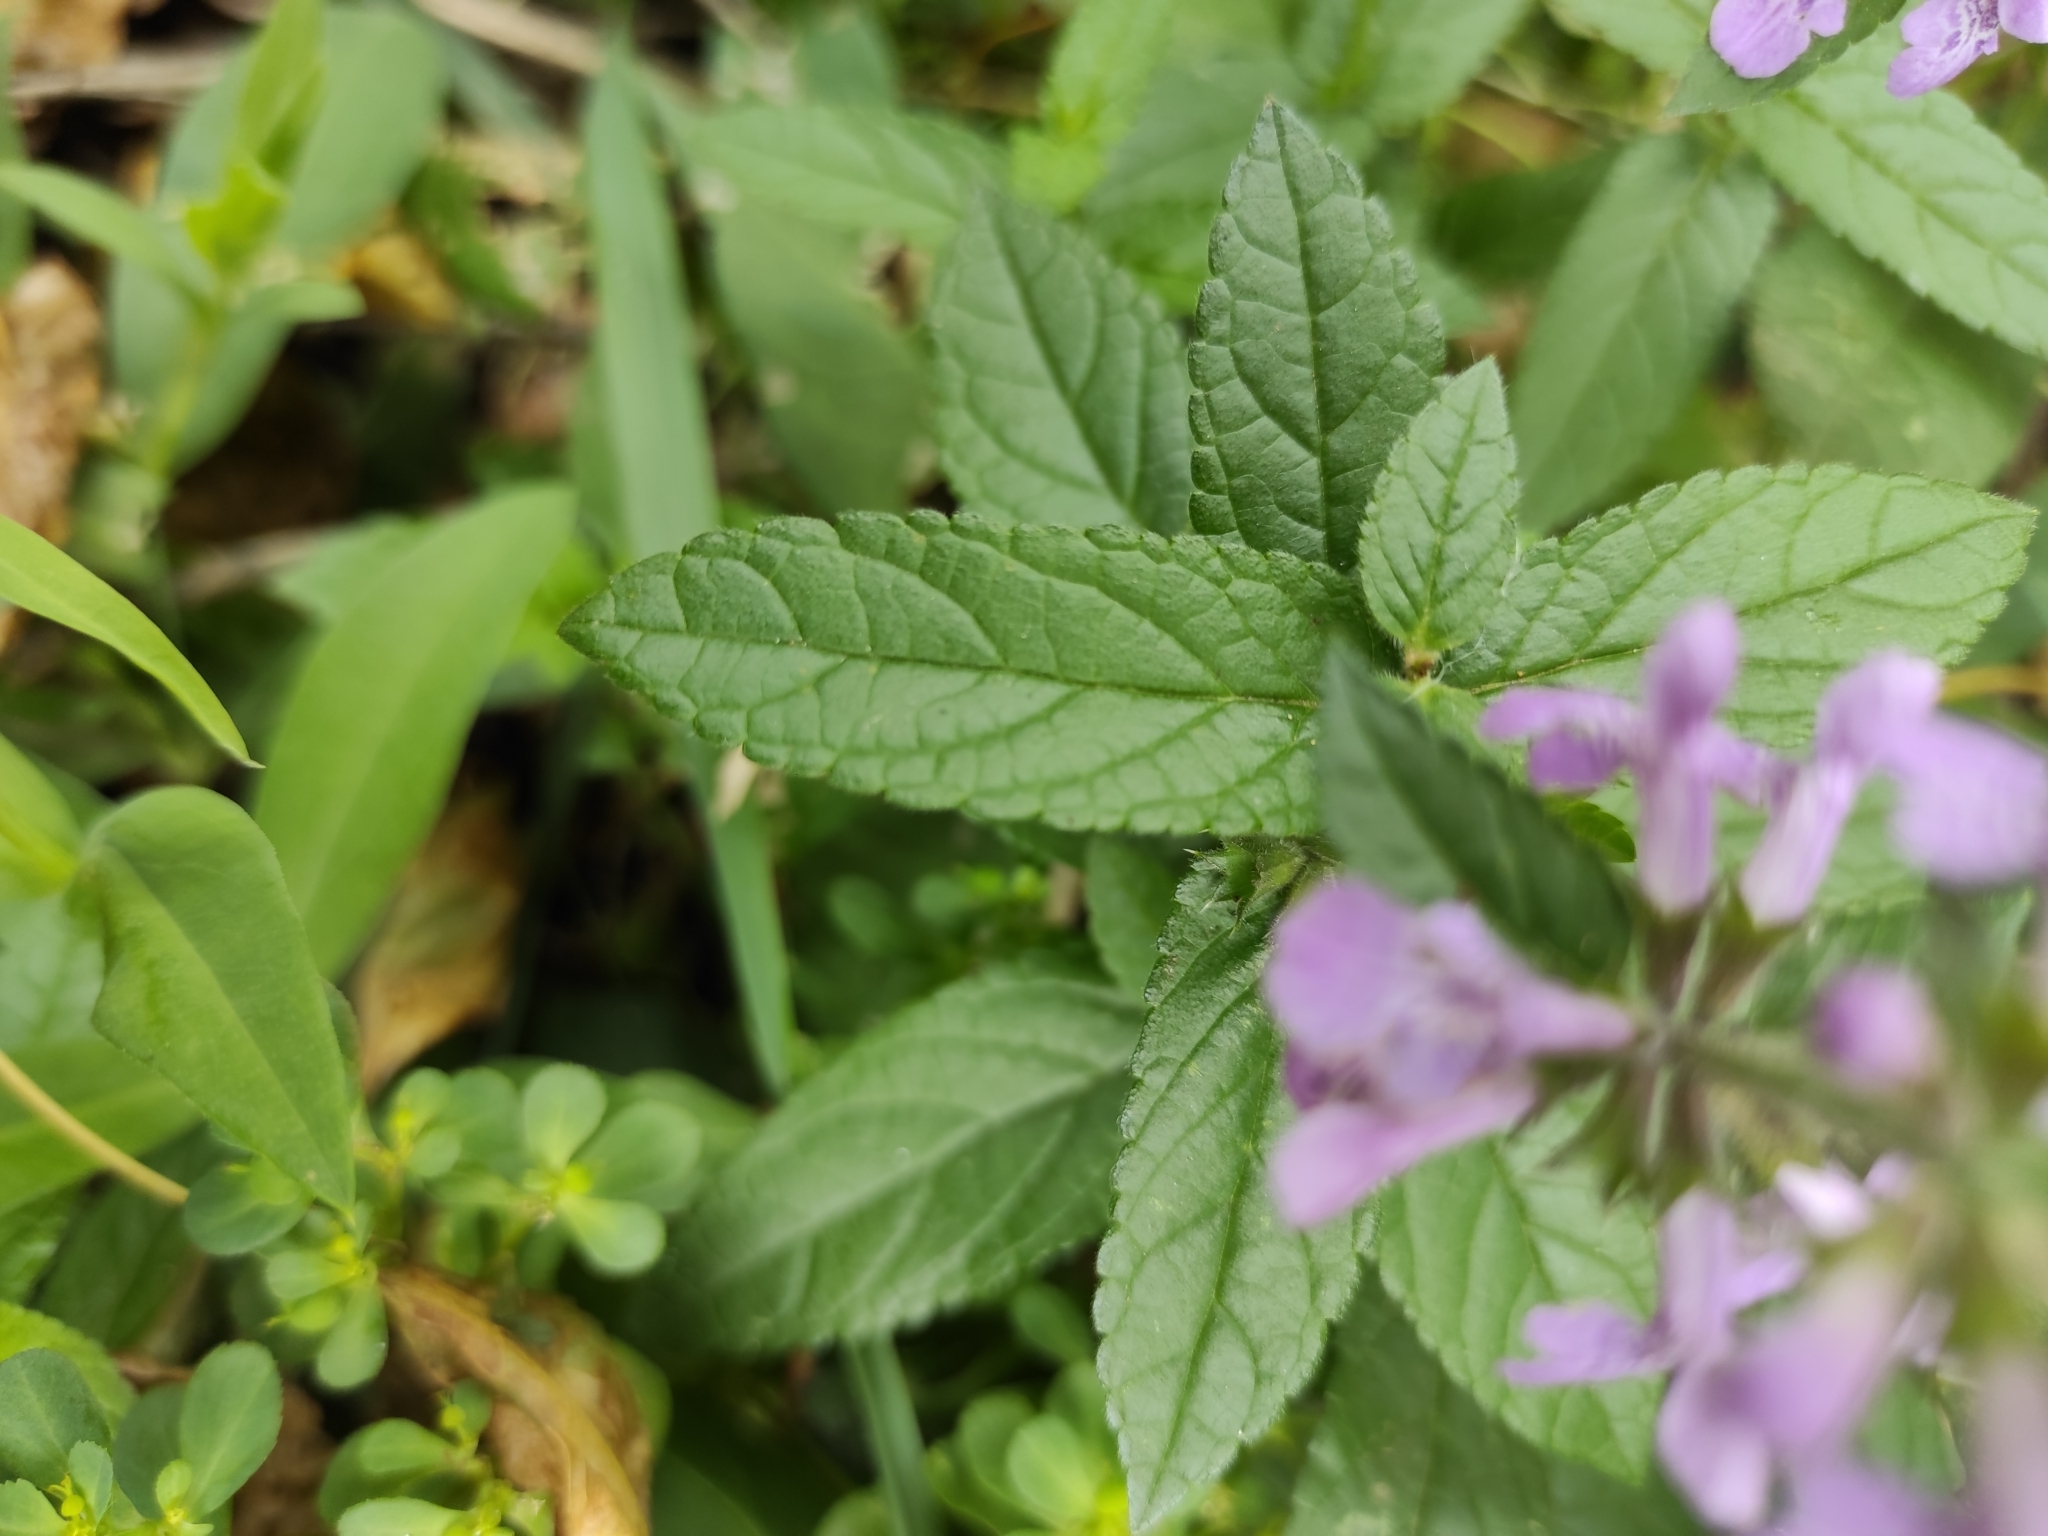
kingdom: Plantae
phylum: Tracheophyta
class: Magnoliopsida
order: Lamiales
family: Lamiaceae
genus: Stachys
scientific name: Stachys palustris
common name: Marsh woundwort
